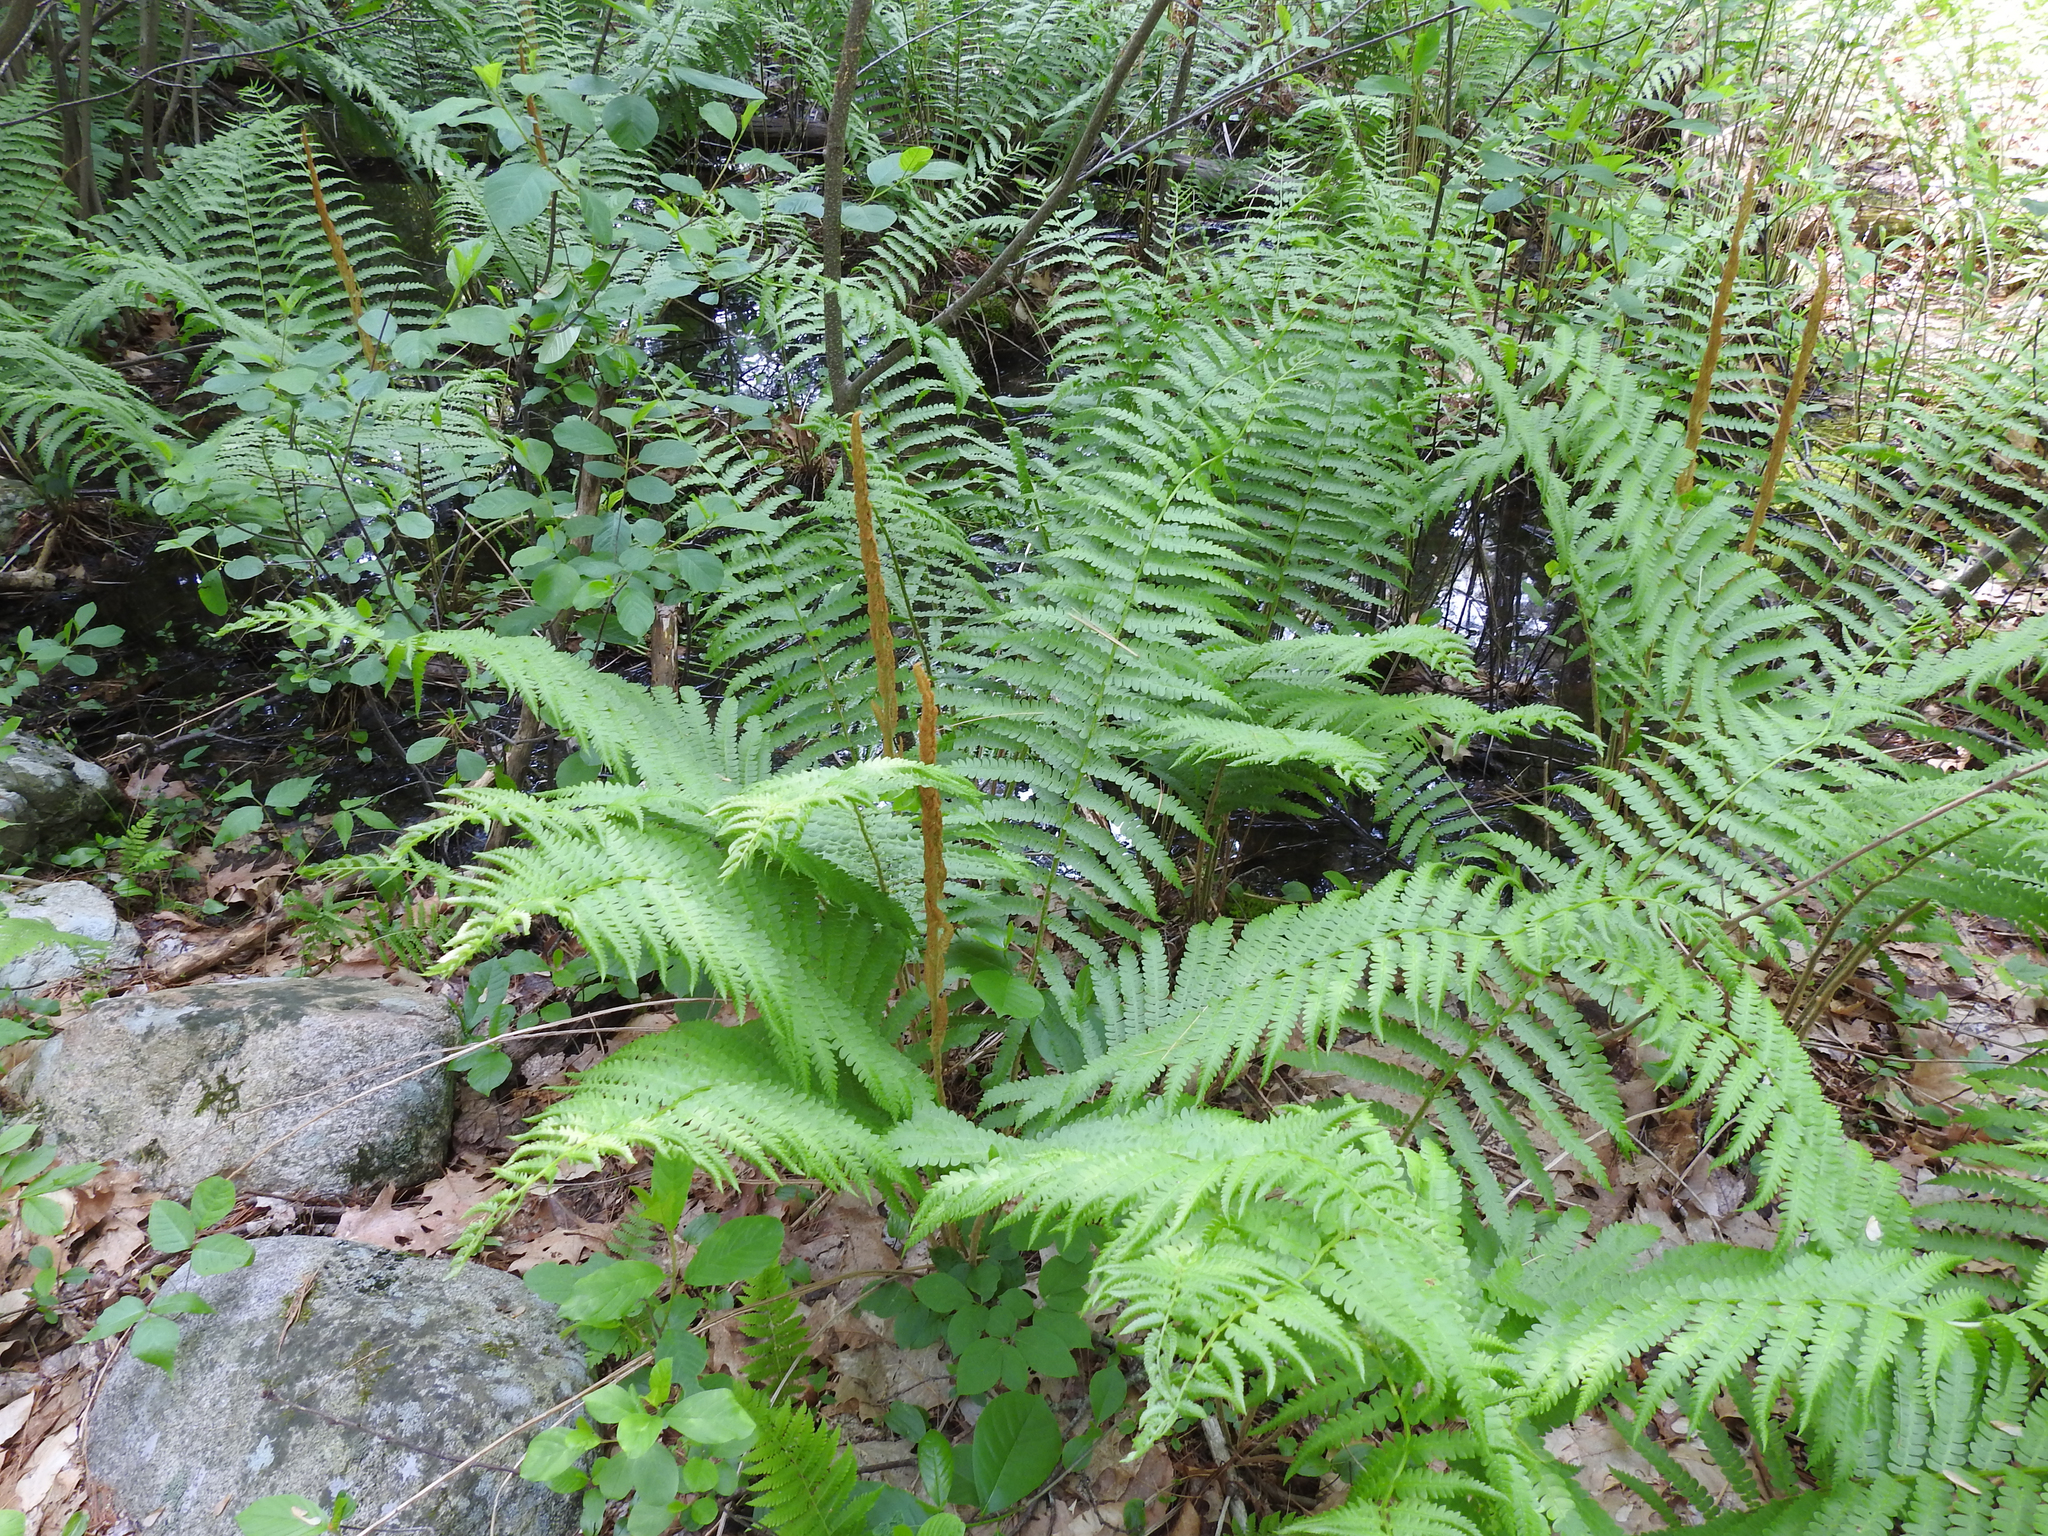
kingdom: Plantae
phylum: Tracheophyta
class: Polypodiopsida
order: Osmundales
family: Osmundaceae
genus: Osmundastrum
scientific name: Osmundastrum cinnamomeum
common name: Cinnamon fern
